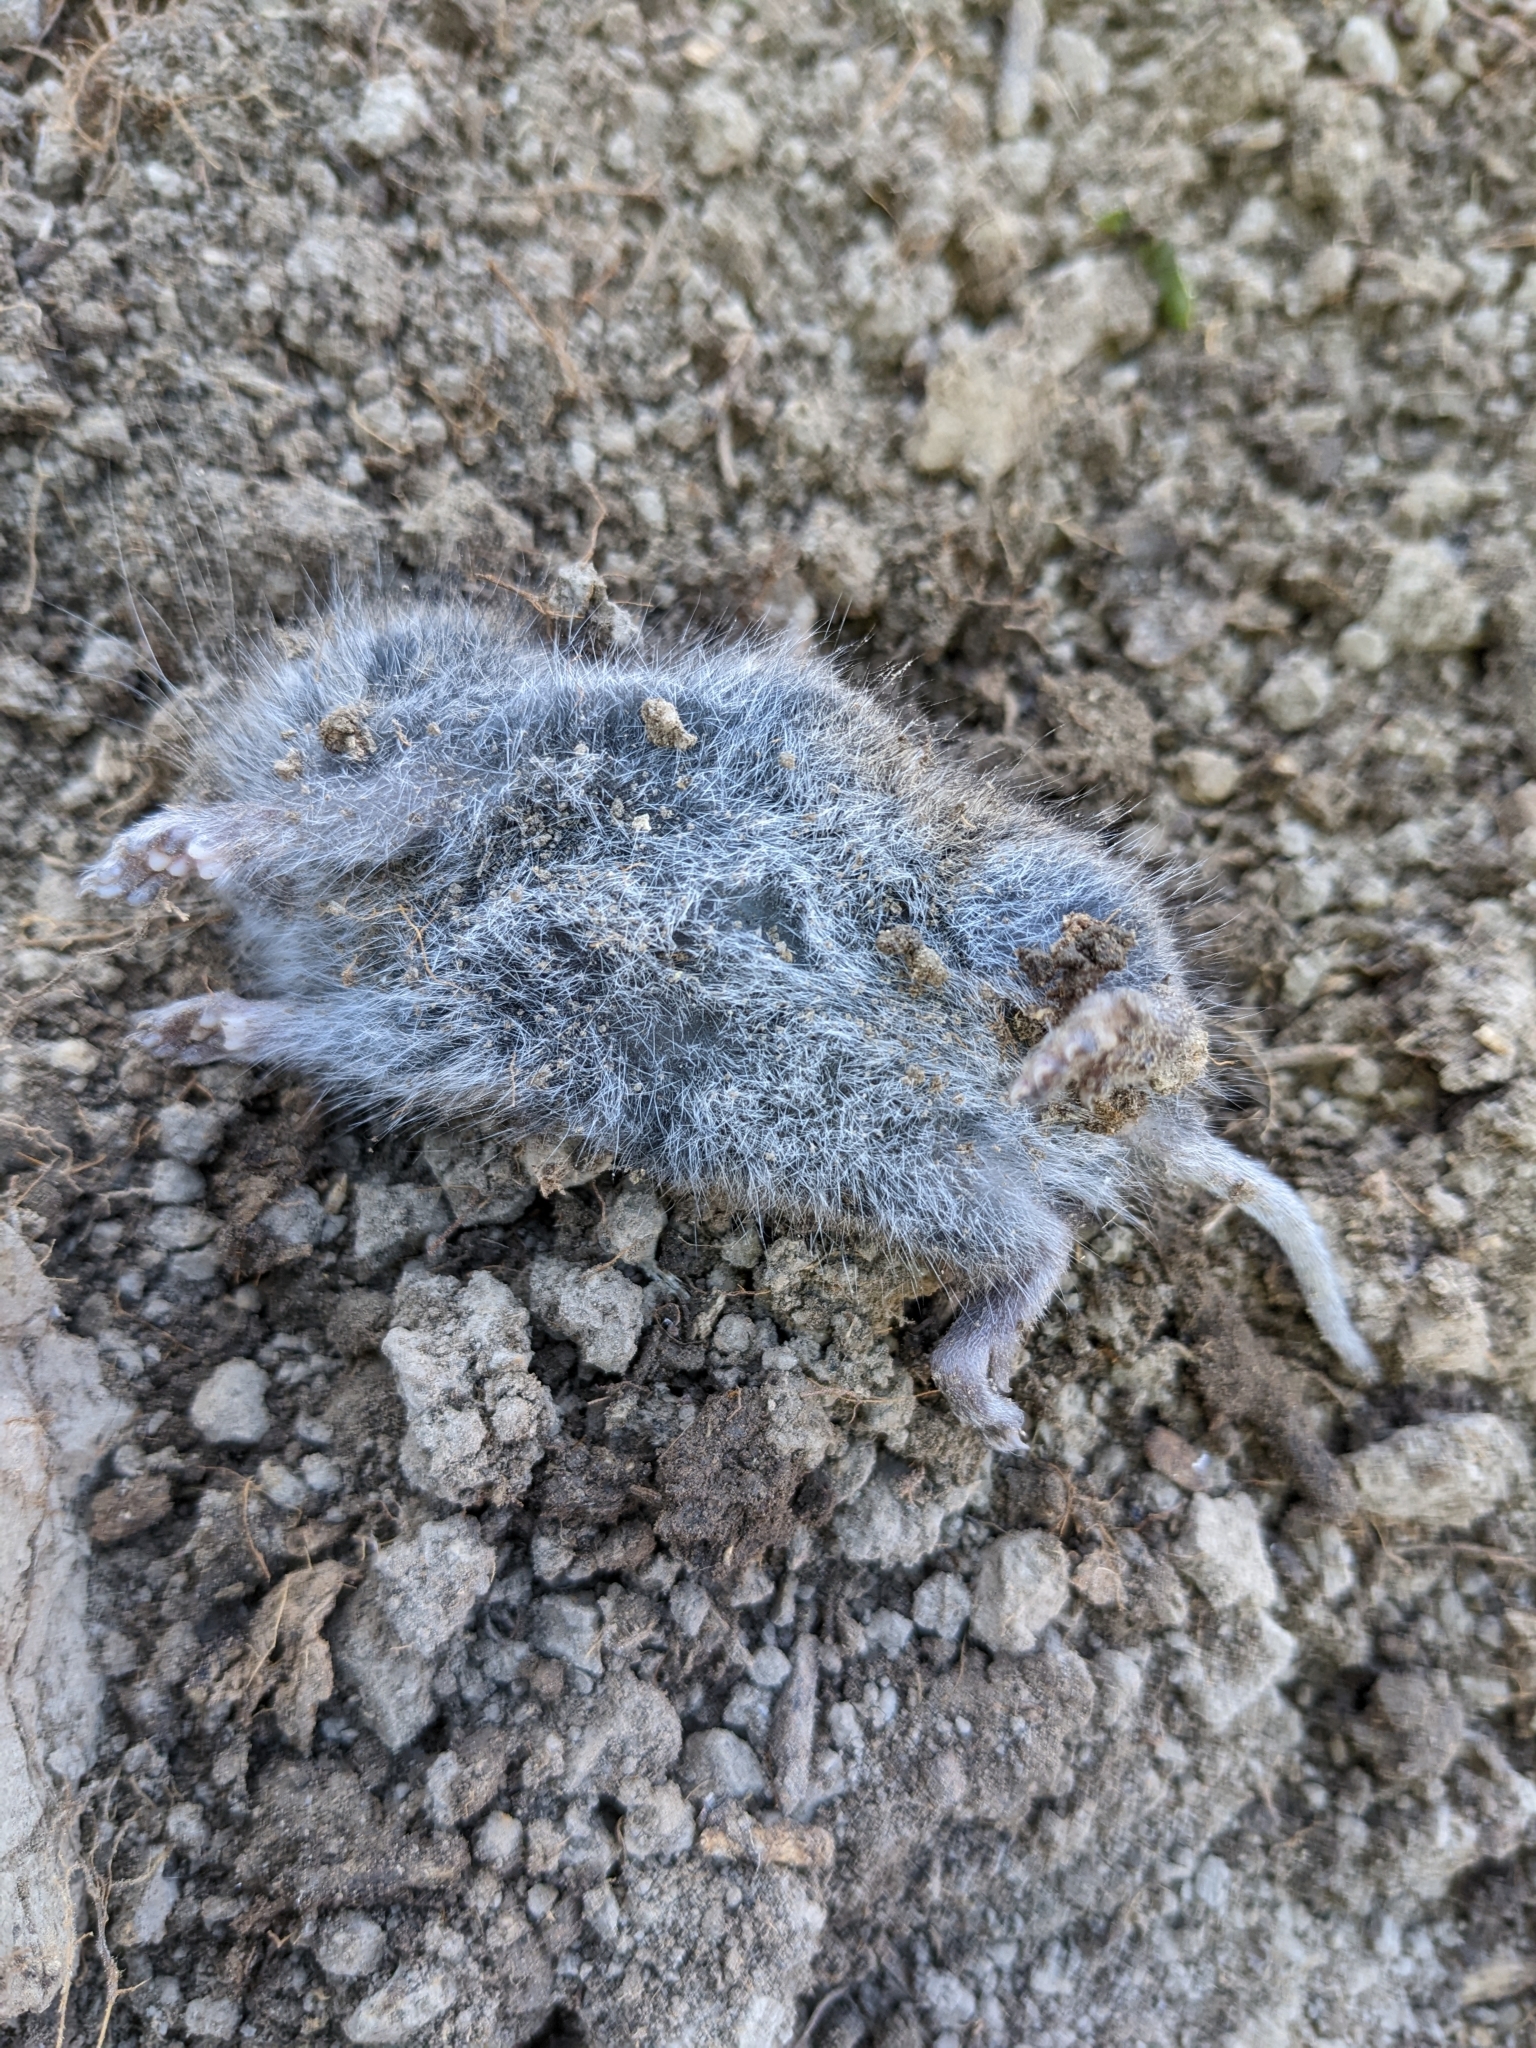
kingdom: Animalia
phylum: Chordata
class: Mammalia
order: Rodentia
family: Cricetidae
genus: Microtus
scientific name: Microtus californicus
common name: California vole
